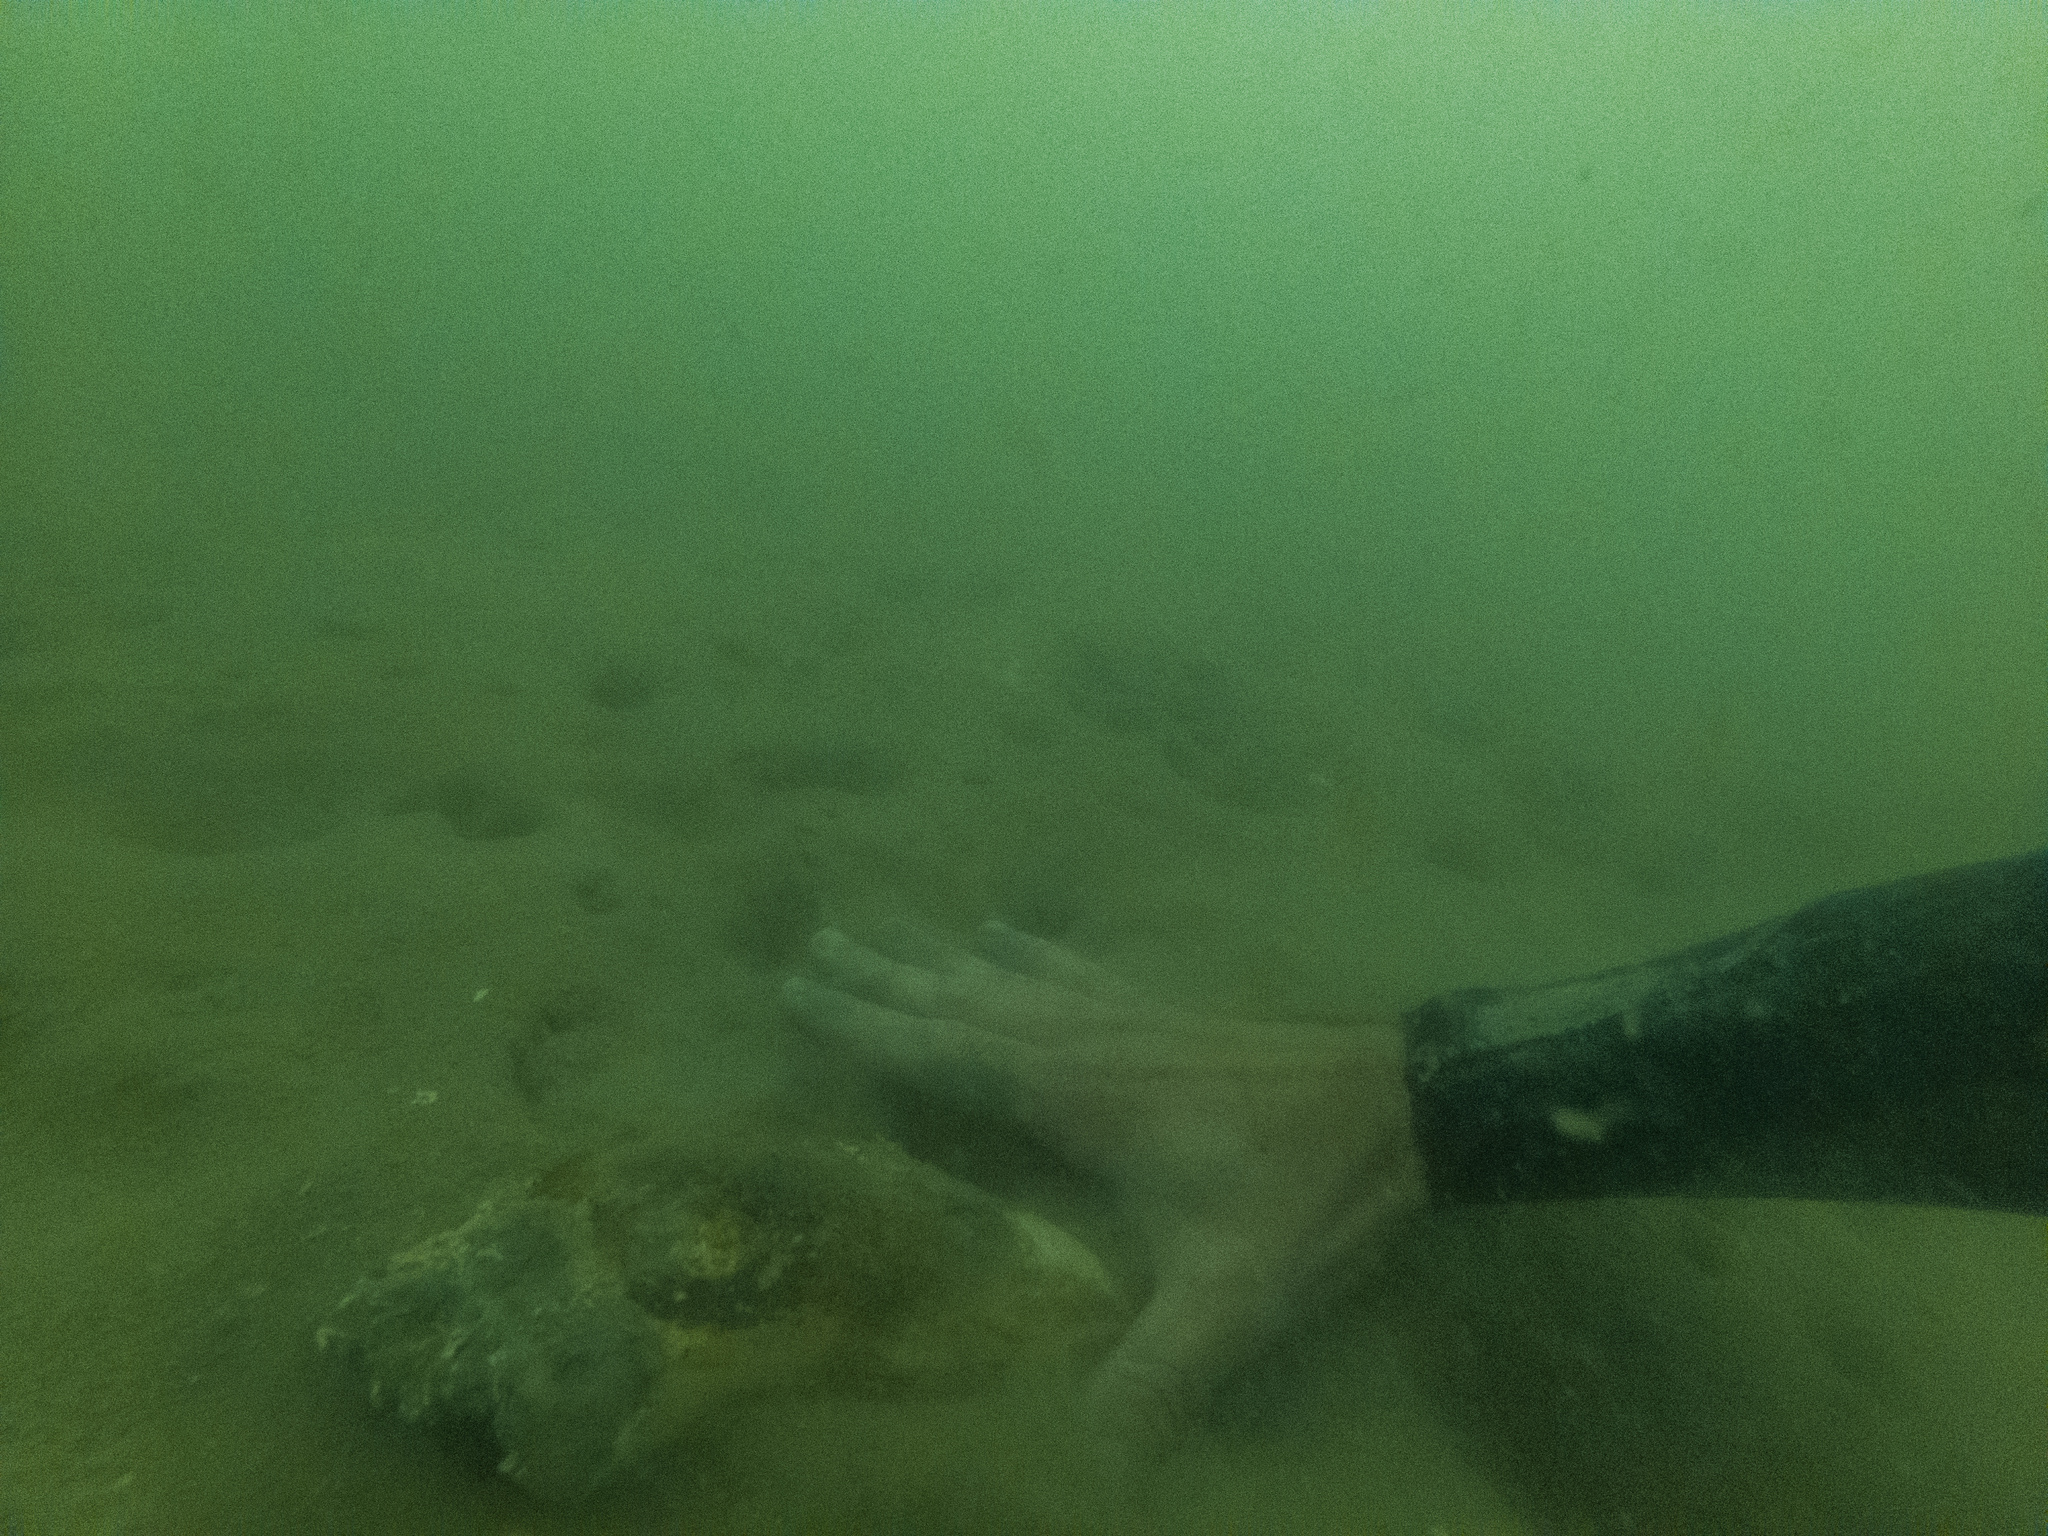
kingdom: Animalia
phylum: Mollusca
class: Bivalvia
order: Mytilida
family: Mytilidae
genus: Perna
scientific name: Perna canaliculus
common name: New zealand greenshelltm
